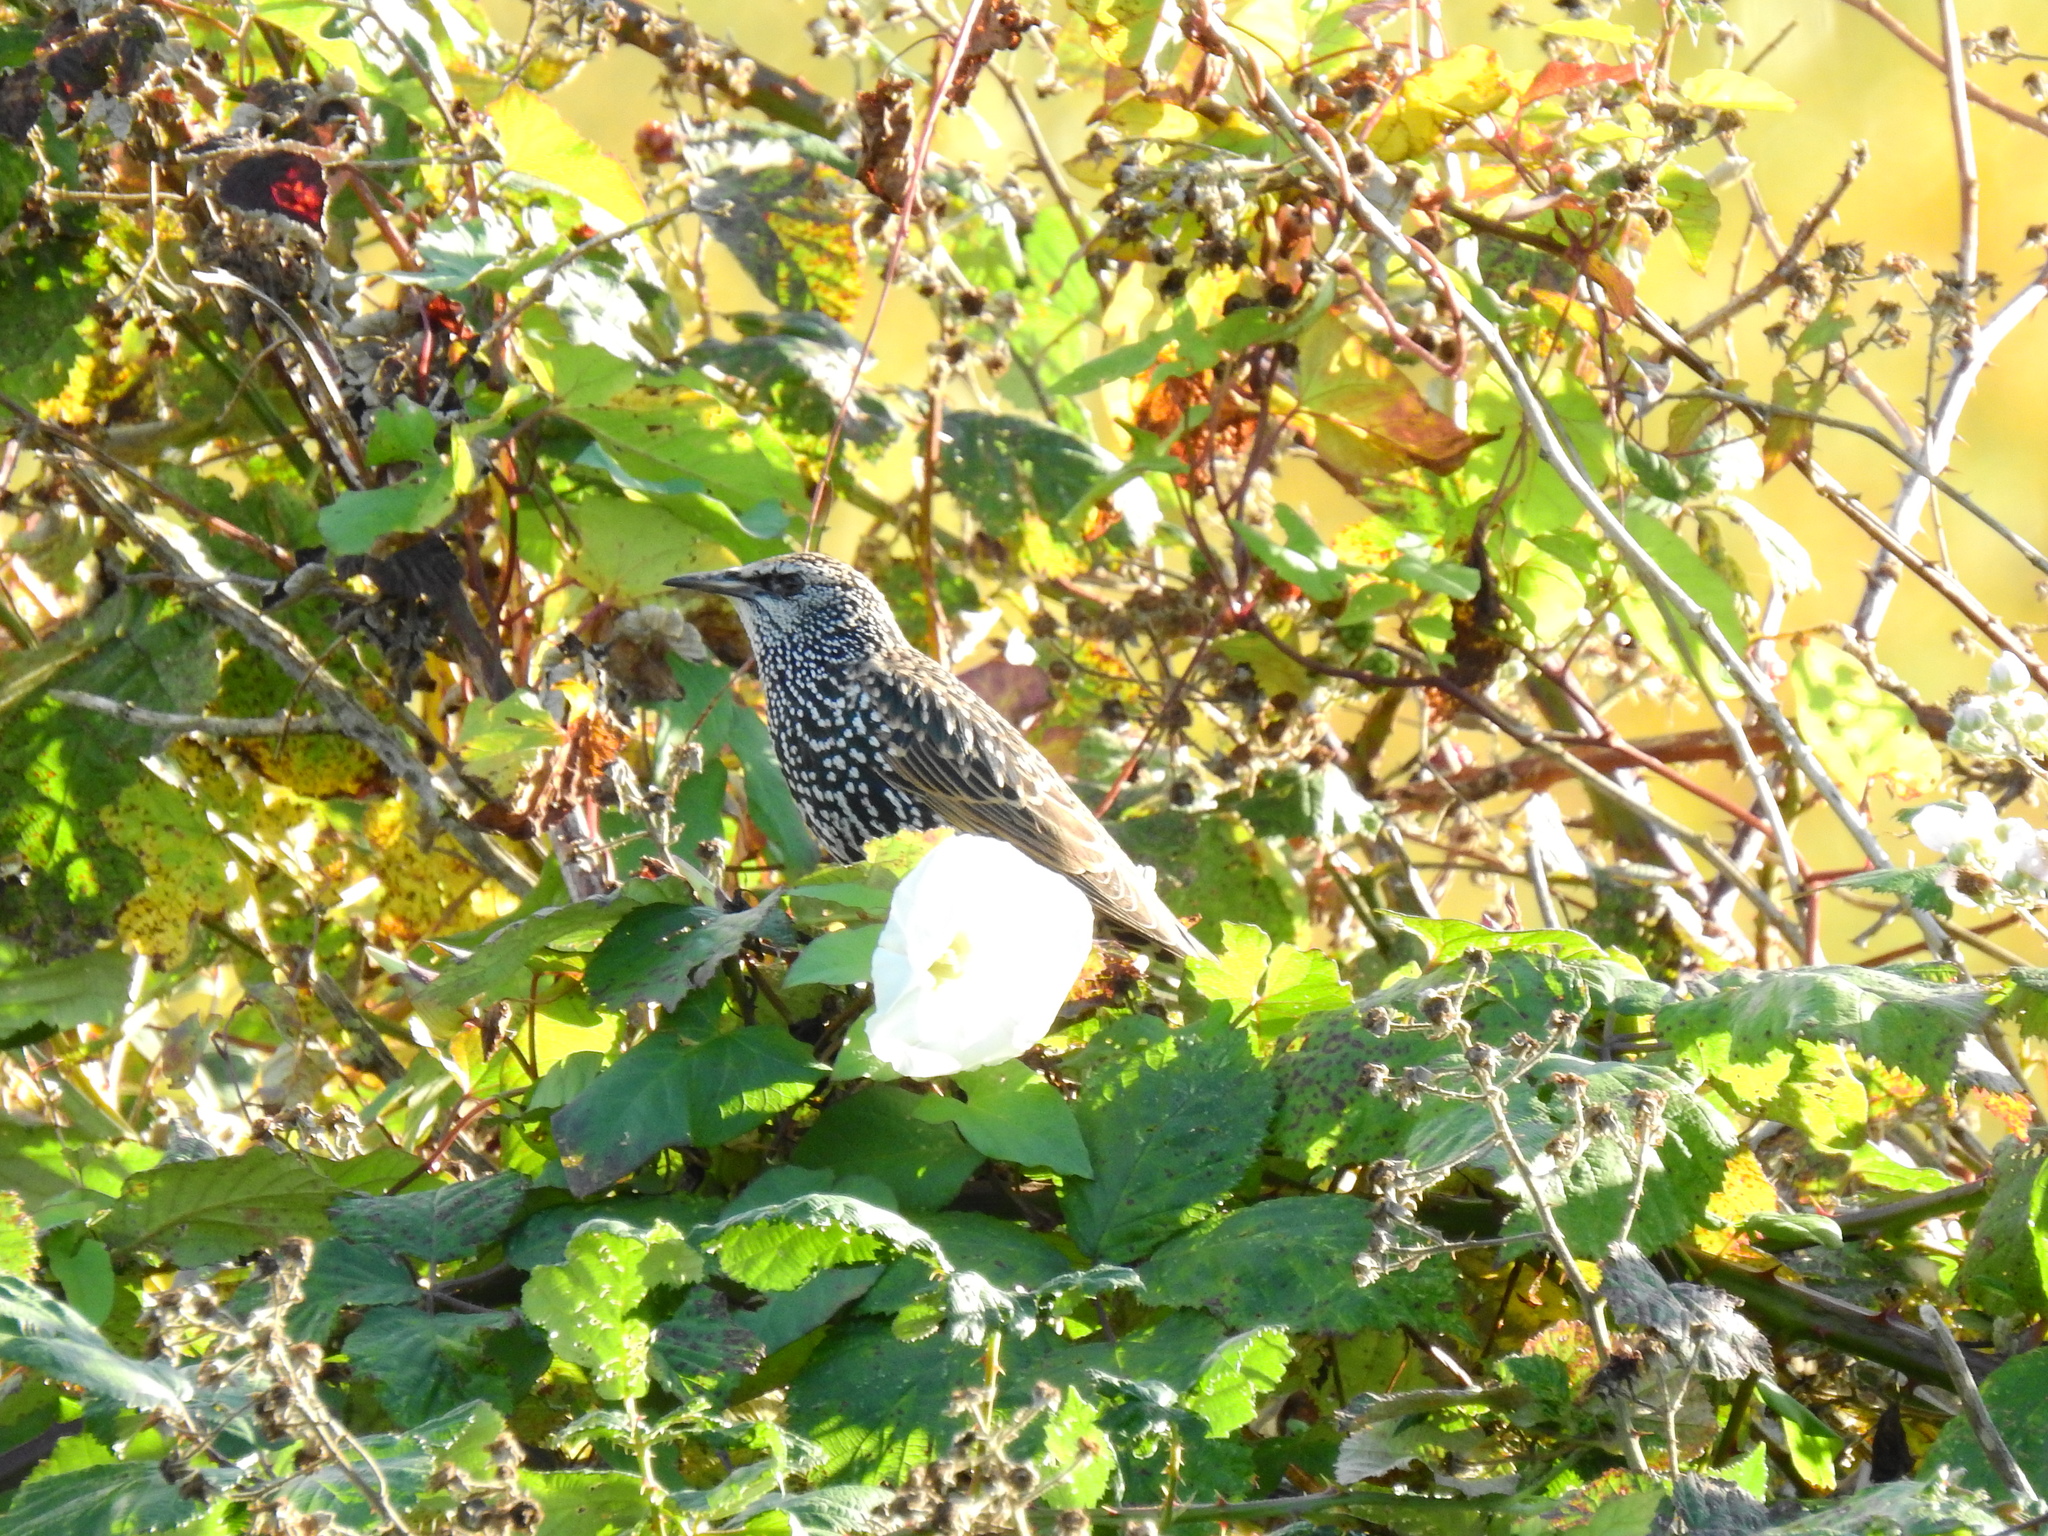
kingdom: Animalia
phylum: Chordata
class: Aves
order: Passeriformes
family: Sturnidae
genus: Sturnus
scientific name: Sturnus vulgaris
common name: Common starling
